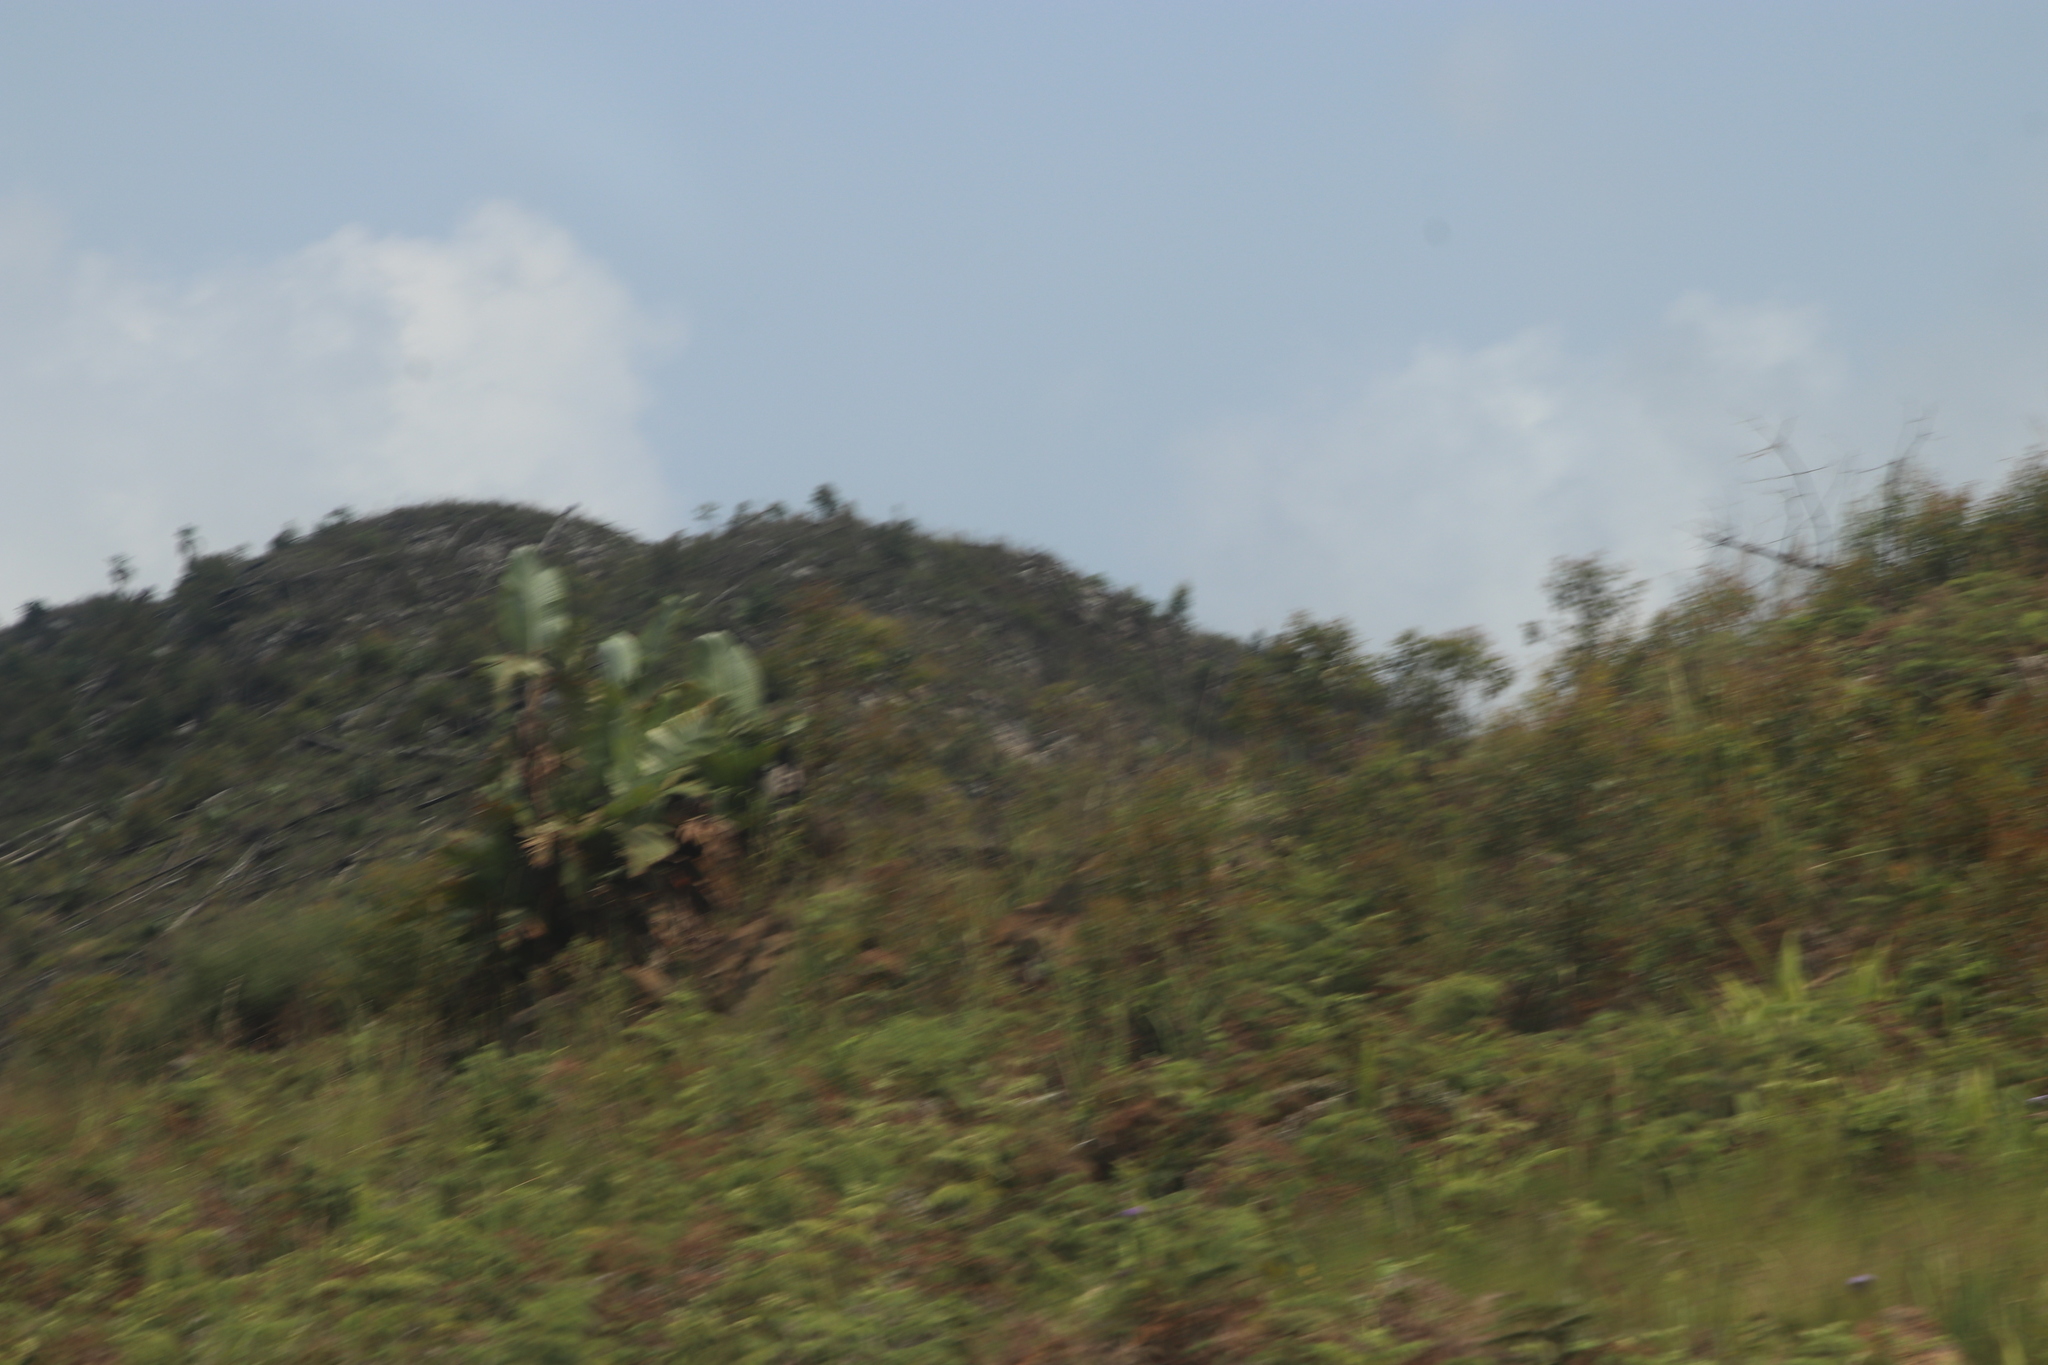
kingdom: Plantae
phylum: Tracheophyta
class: Liliopsida
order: Zingiberales
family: Strelitziaceae
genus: Strelitzia
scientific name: Strelitzia caudata
